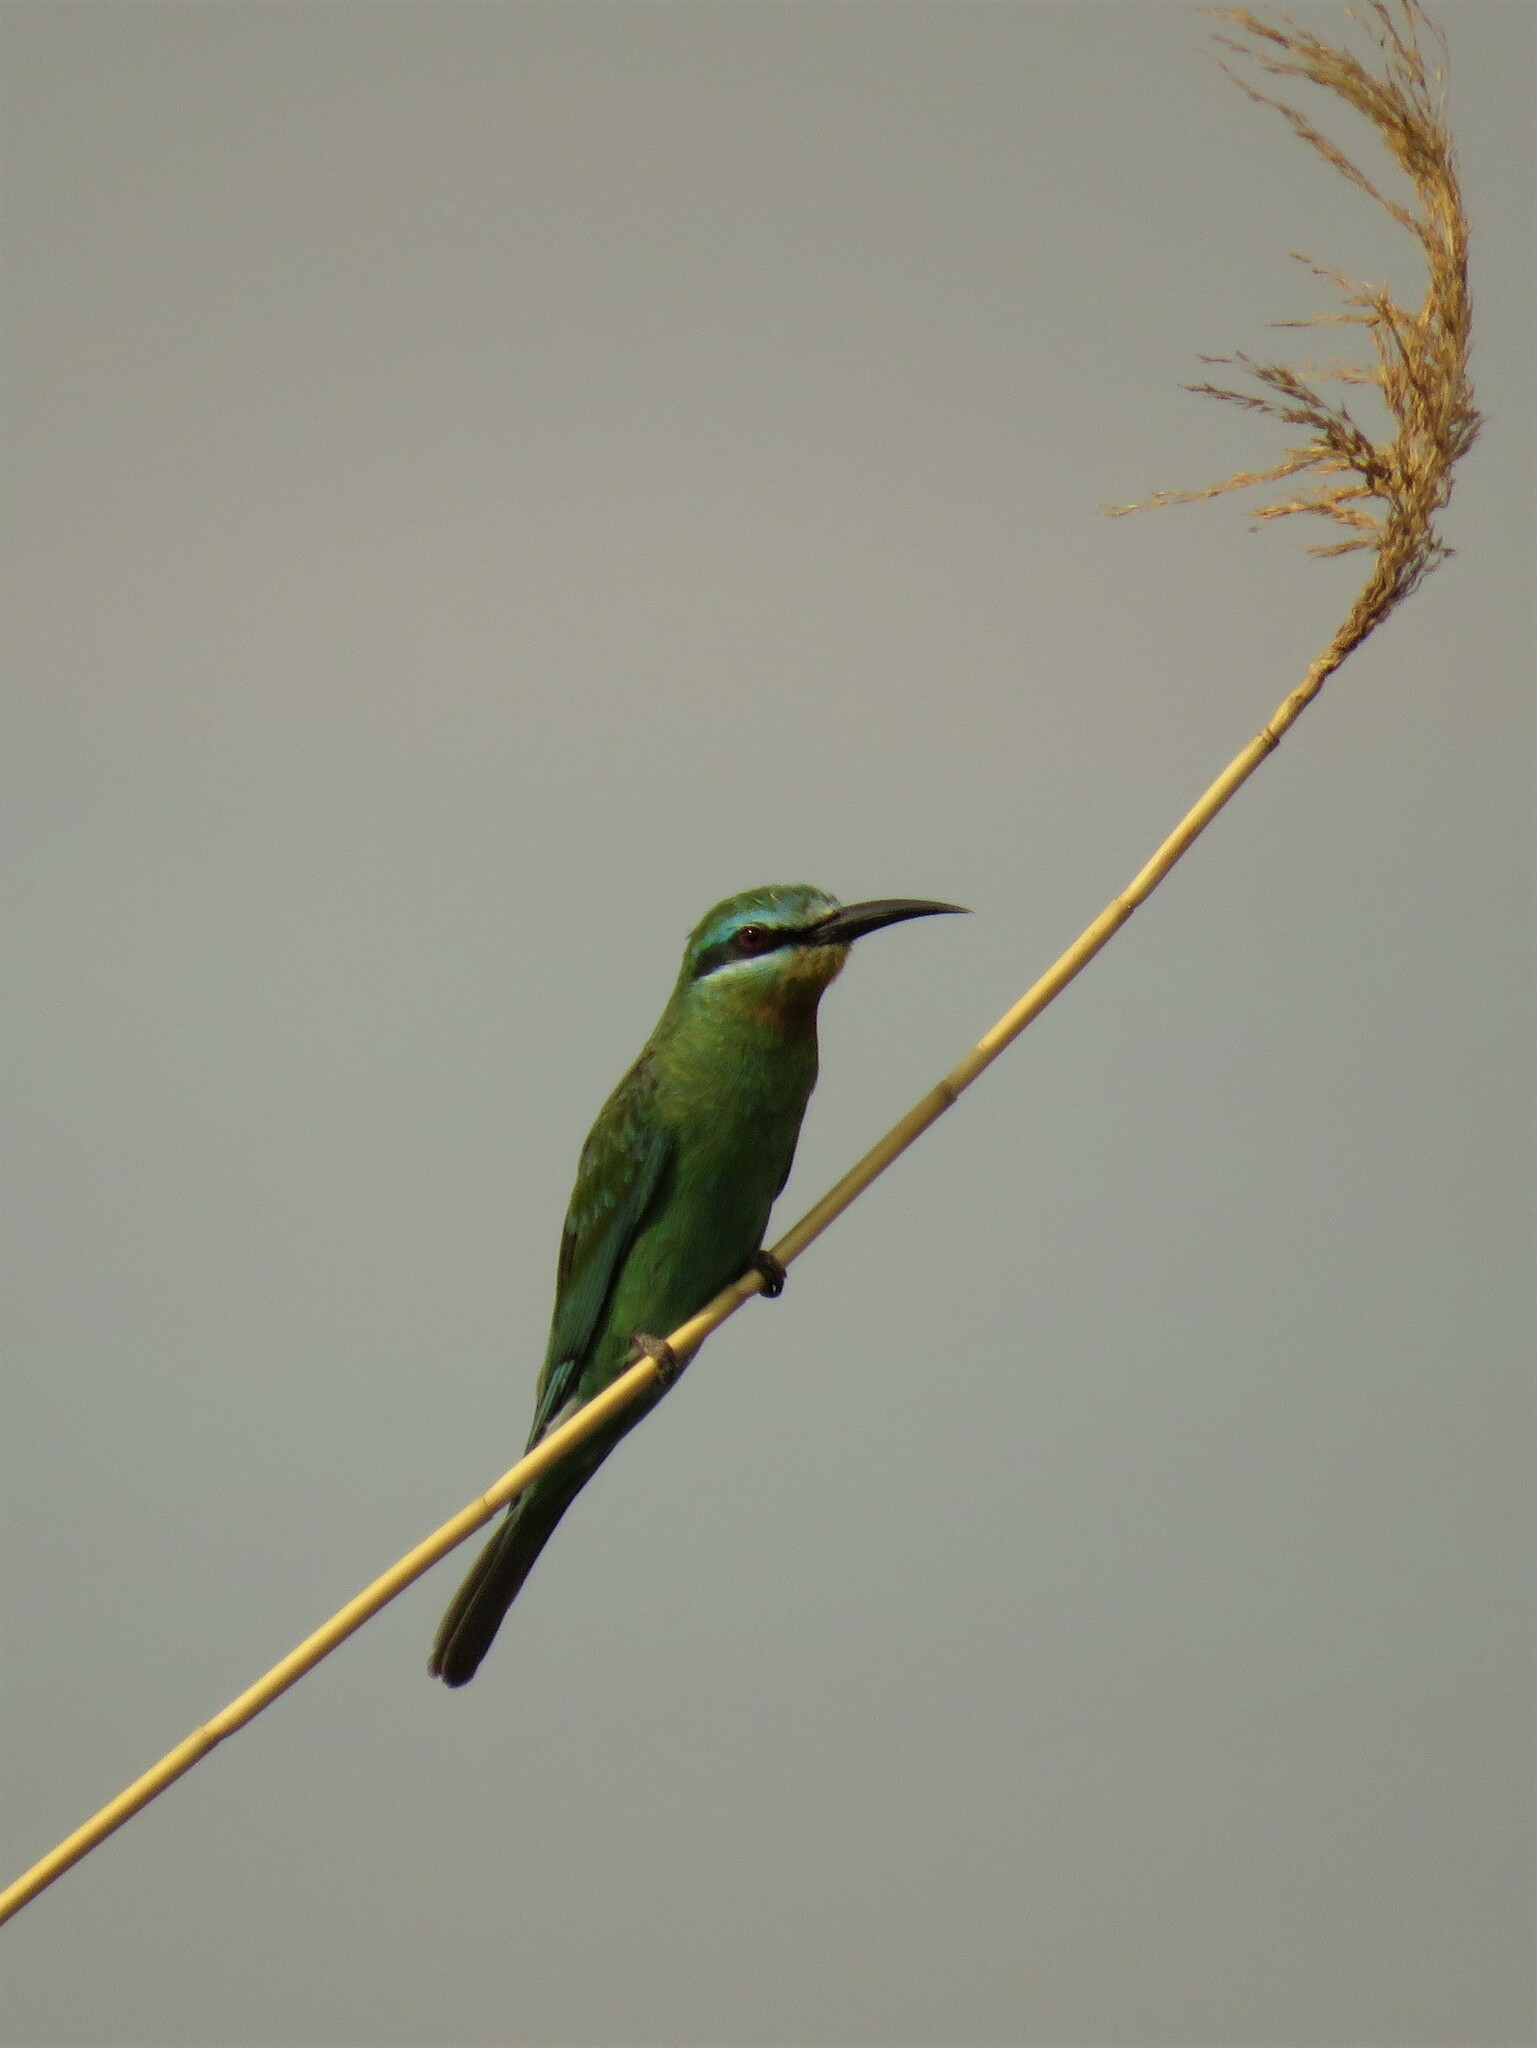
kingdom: Animalia
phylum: Chordata
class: Aves
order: Coraciiformes
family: Meropidae
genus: Merops
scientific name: Merops persicus
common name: Blue-cheeked bee-eater
